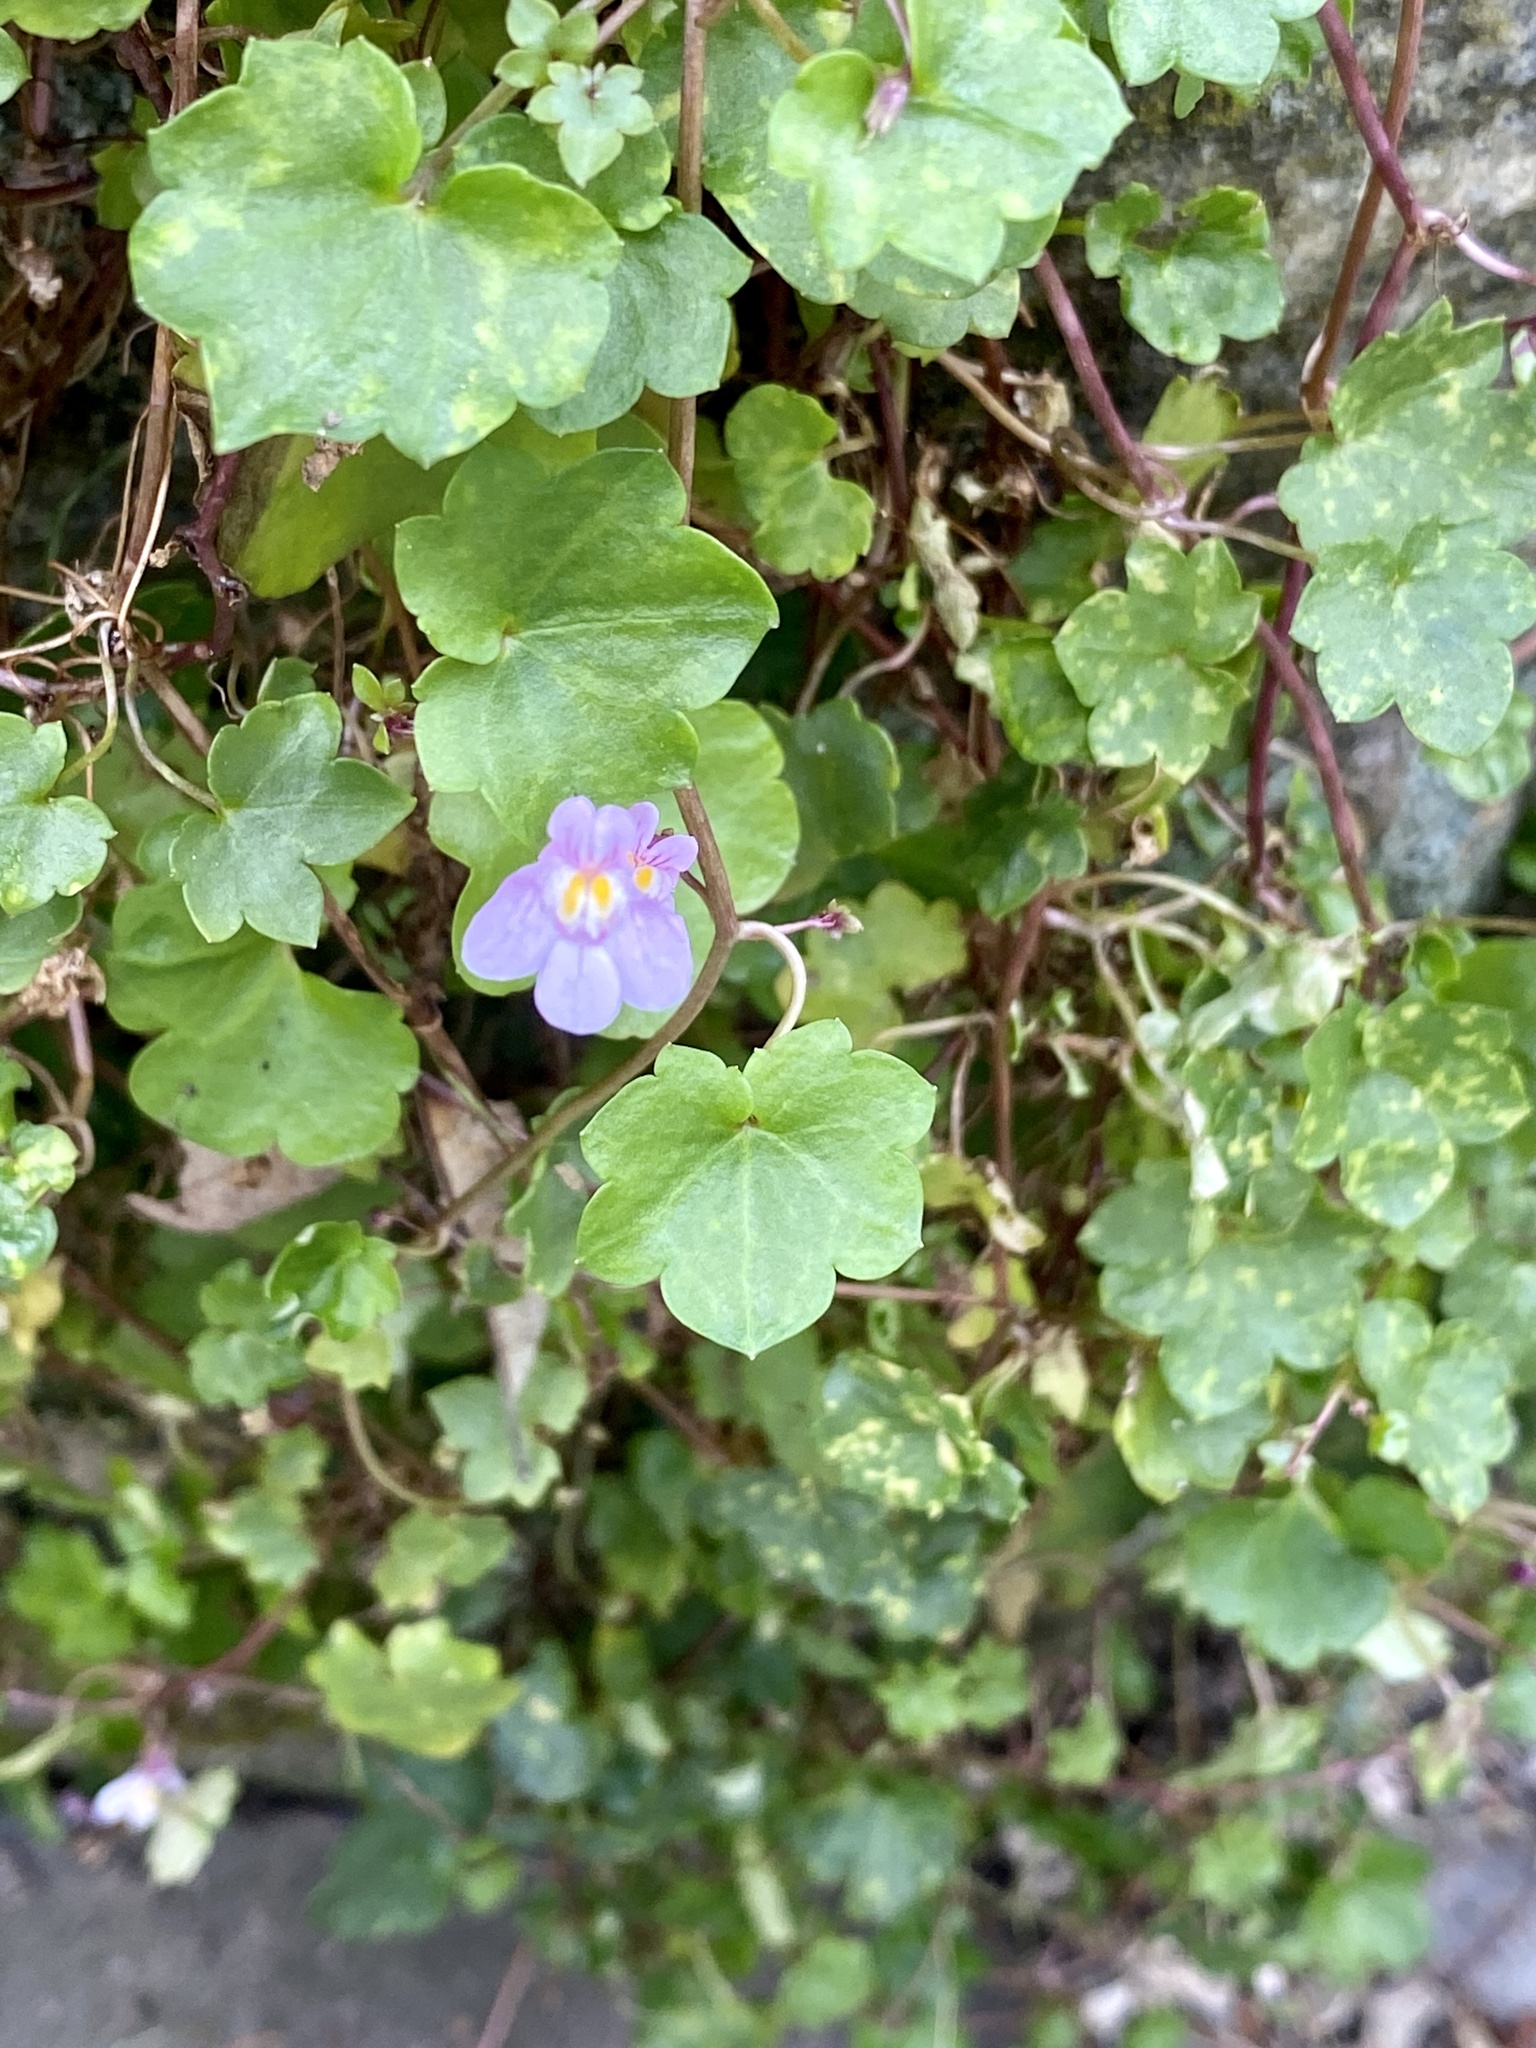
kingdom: Plantae
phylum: Tracheophyta
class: Magnoliopsida
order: Lamiales
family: Plantaginaceae
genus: Cymbalaria
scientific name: Cymbalaria muralis
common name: Ivy-leaved toadflax
